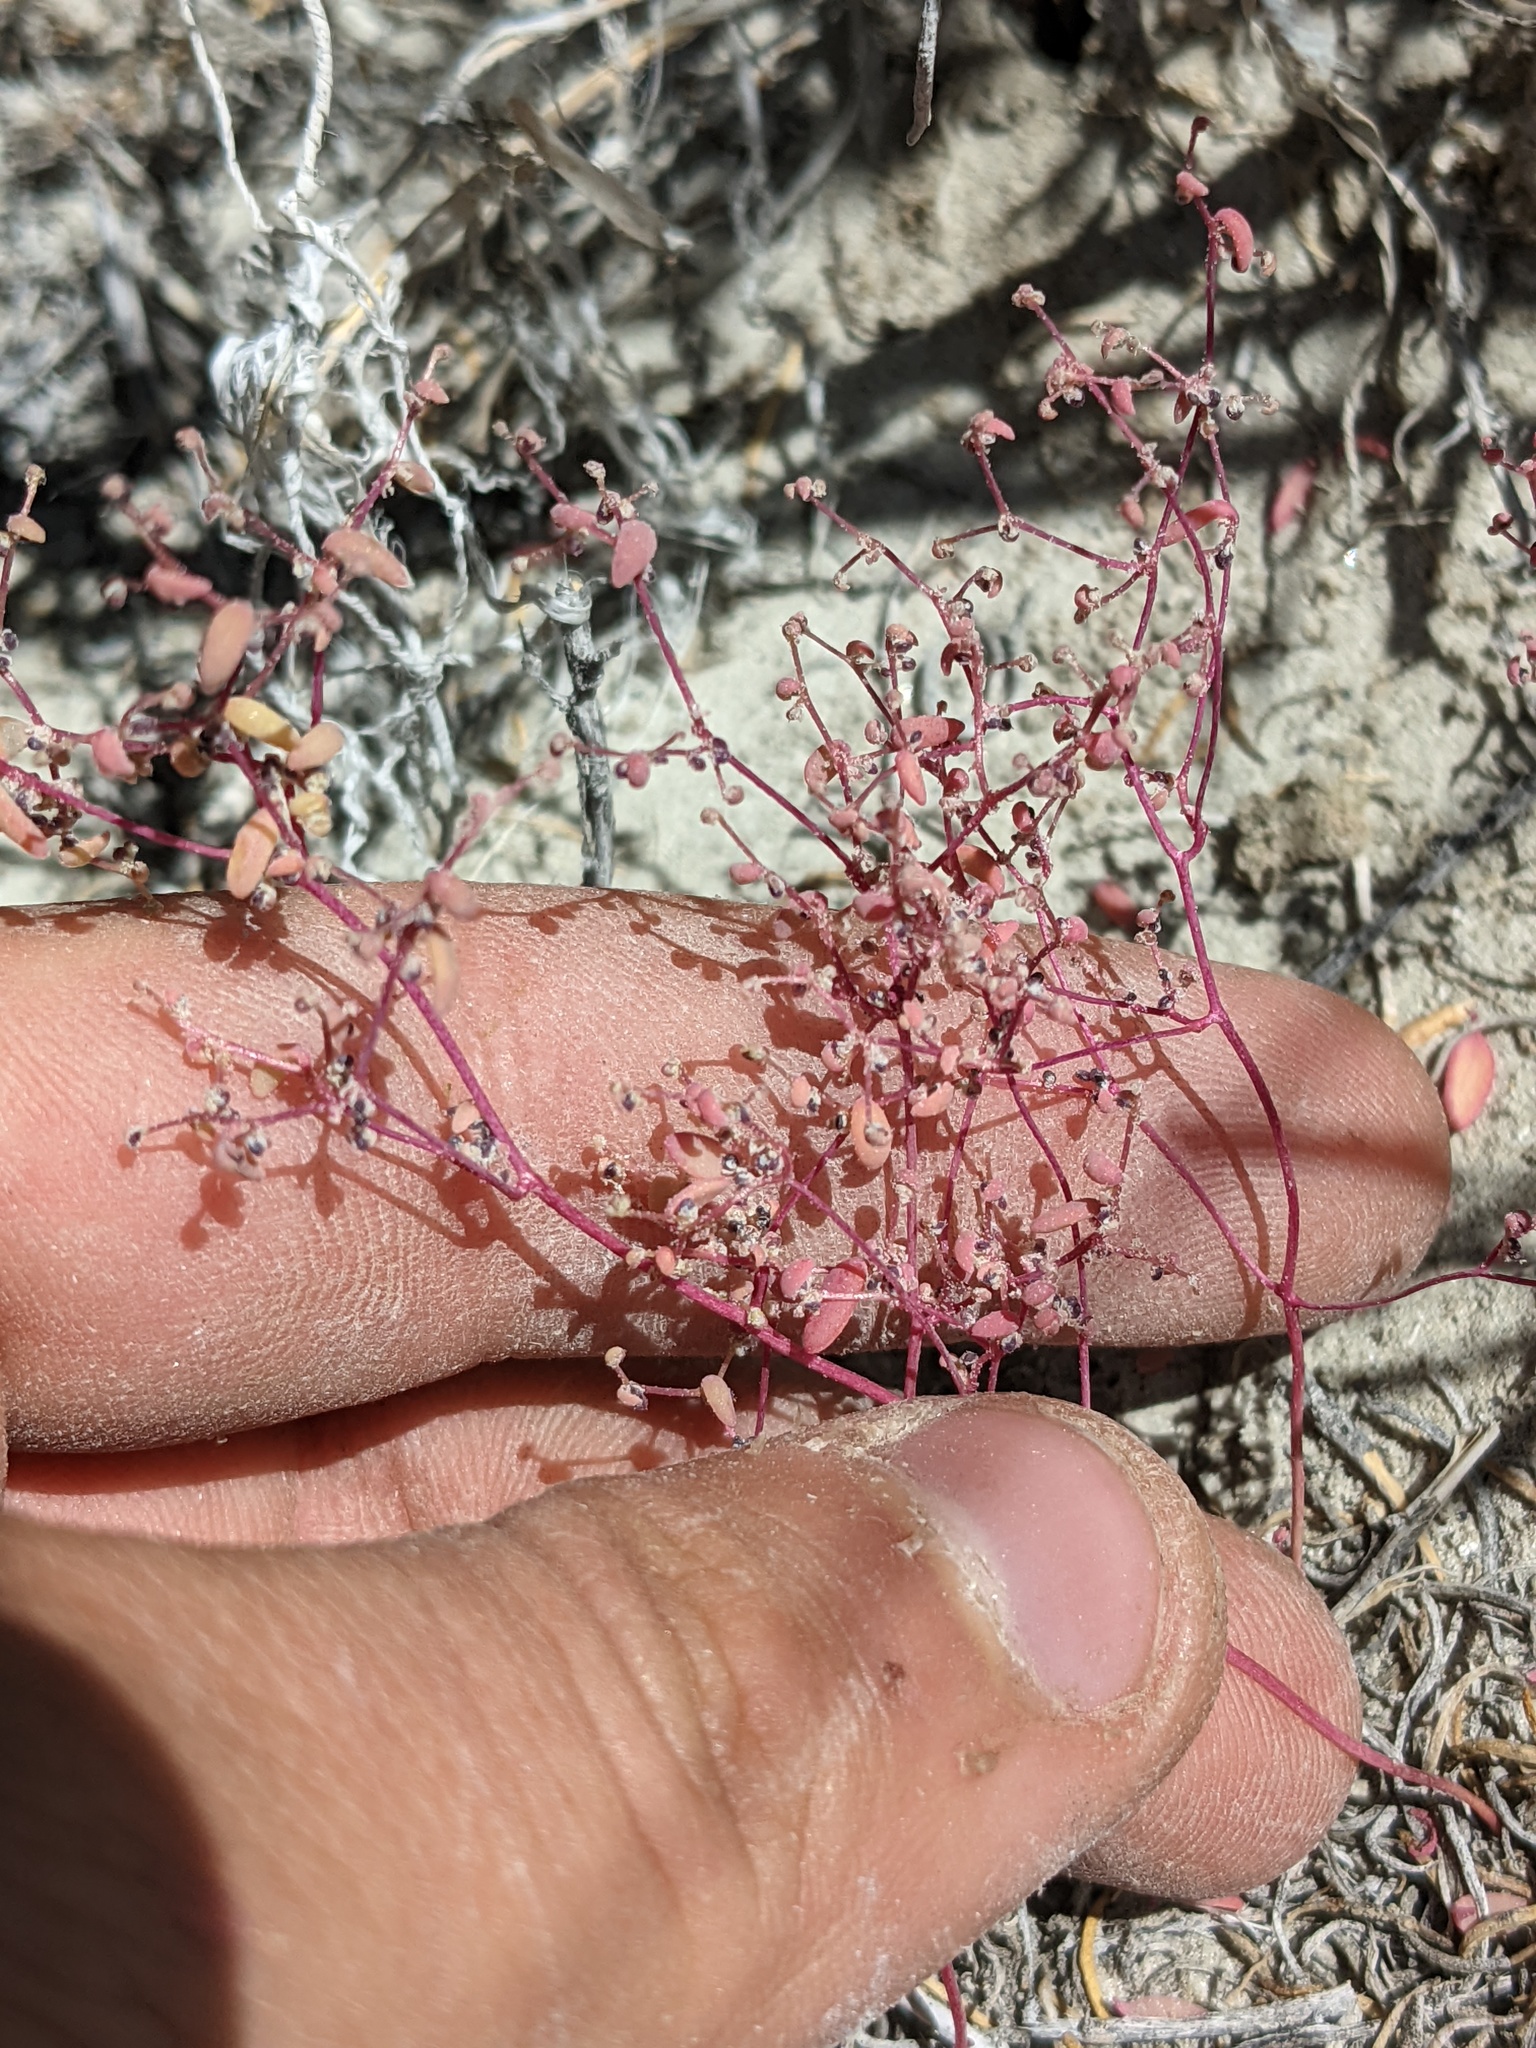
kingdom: Plantae
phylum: Tracheophyta
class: Magnoliopsida
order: Caryophyllales
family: Amaranthaceae
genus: Micromonolepis
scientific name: Micromonolepis pusilla
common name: Dwarf monolepis
